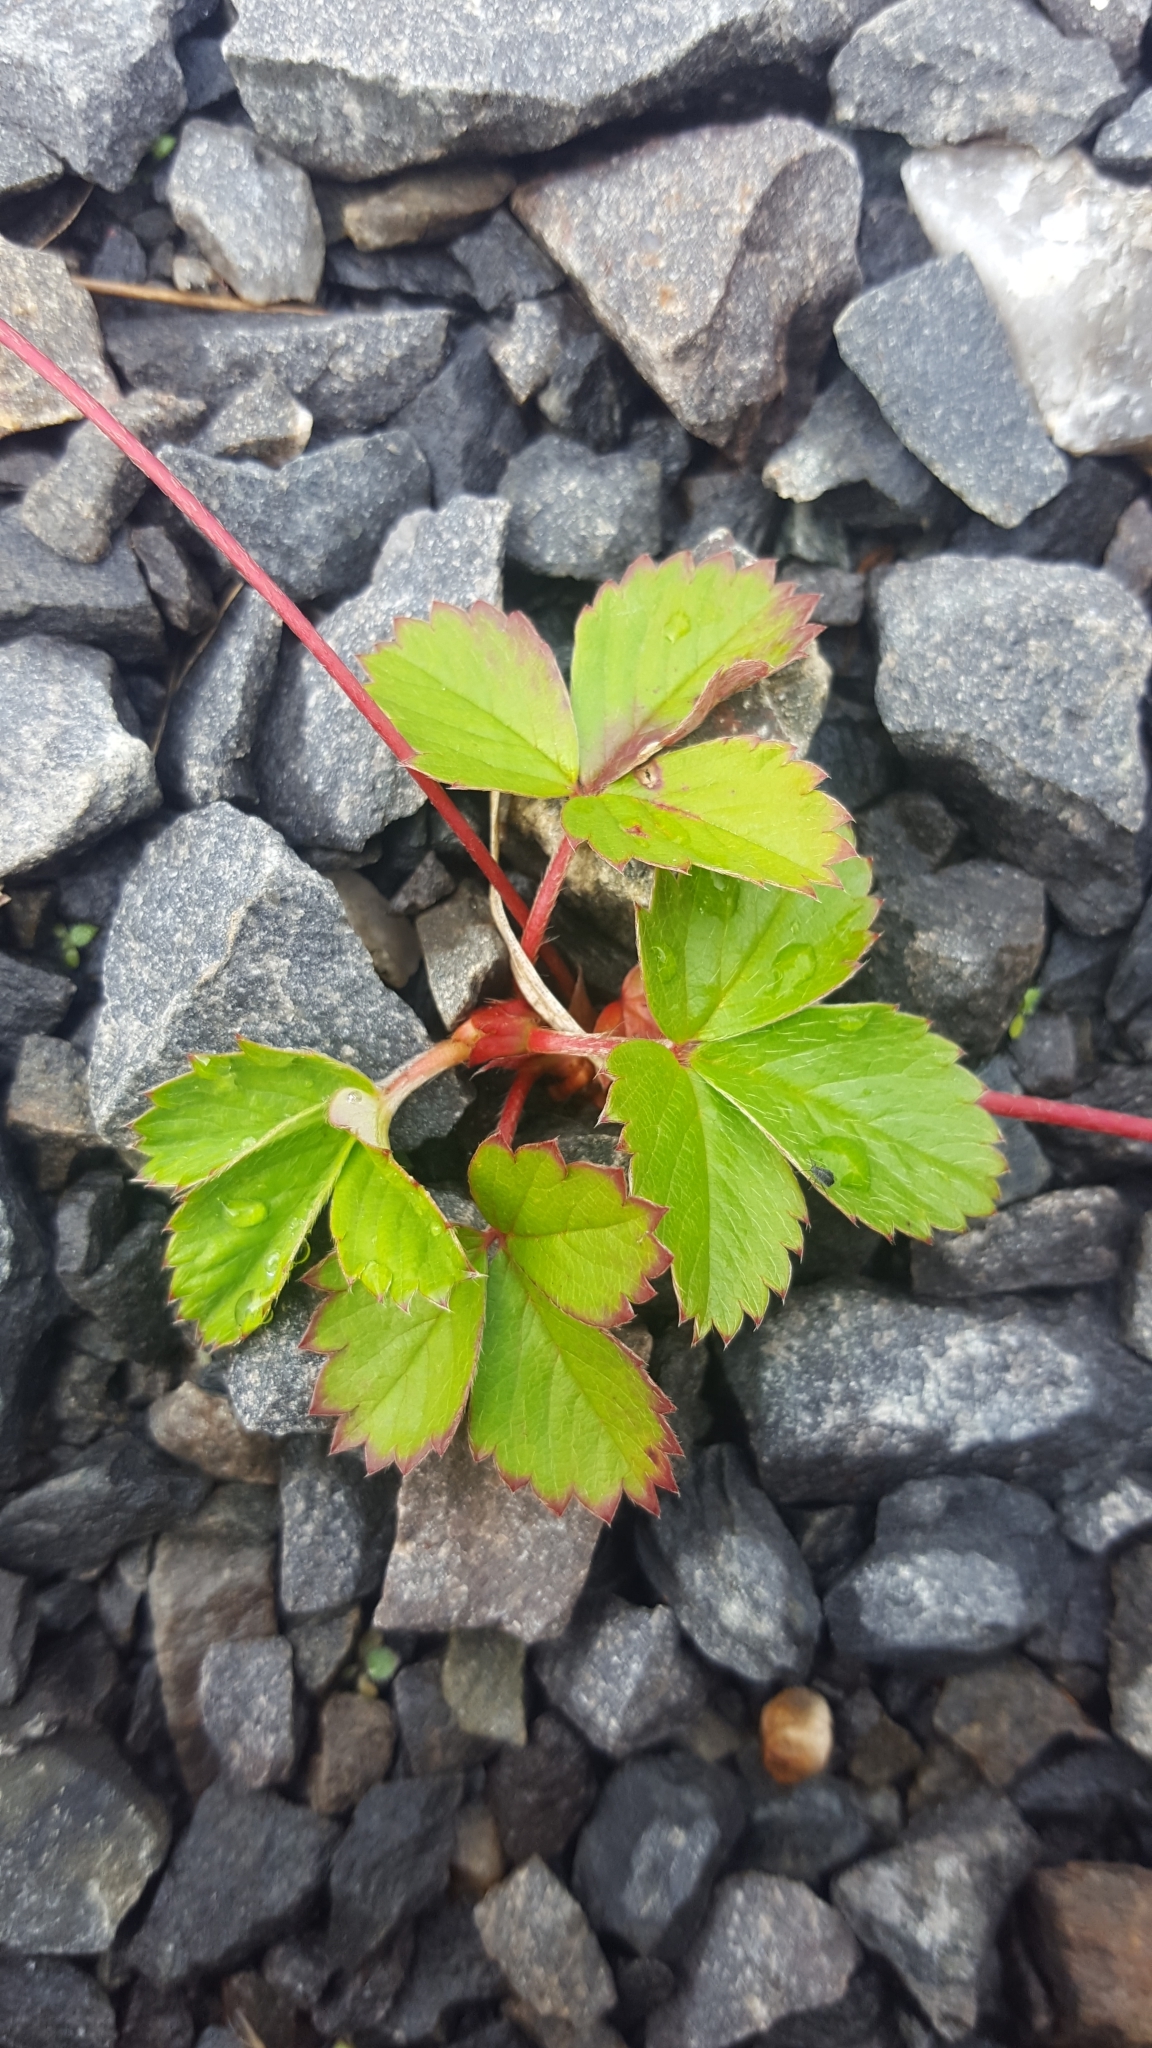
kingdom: Plantae
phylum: Tracheophyta
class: Magnoliopsida
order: Rosales
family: Rosaceae
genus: Fragaria
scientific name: Fragaria virginiana
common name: Thickleaved wild strawberry
